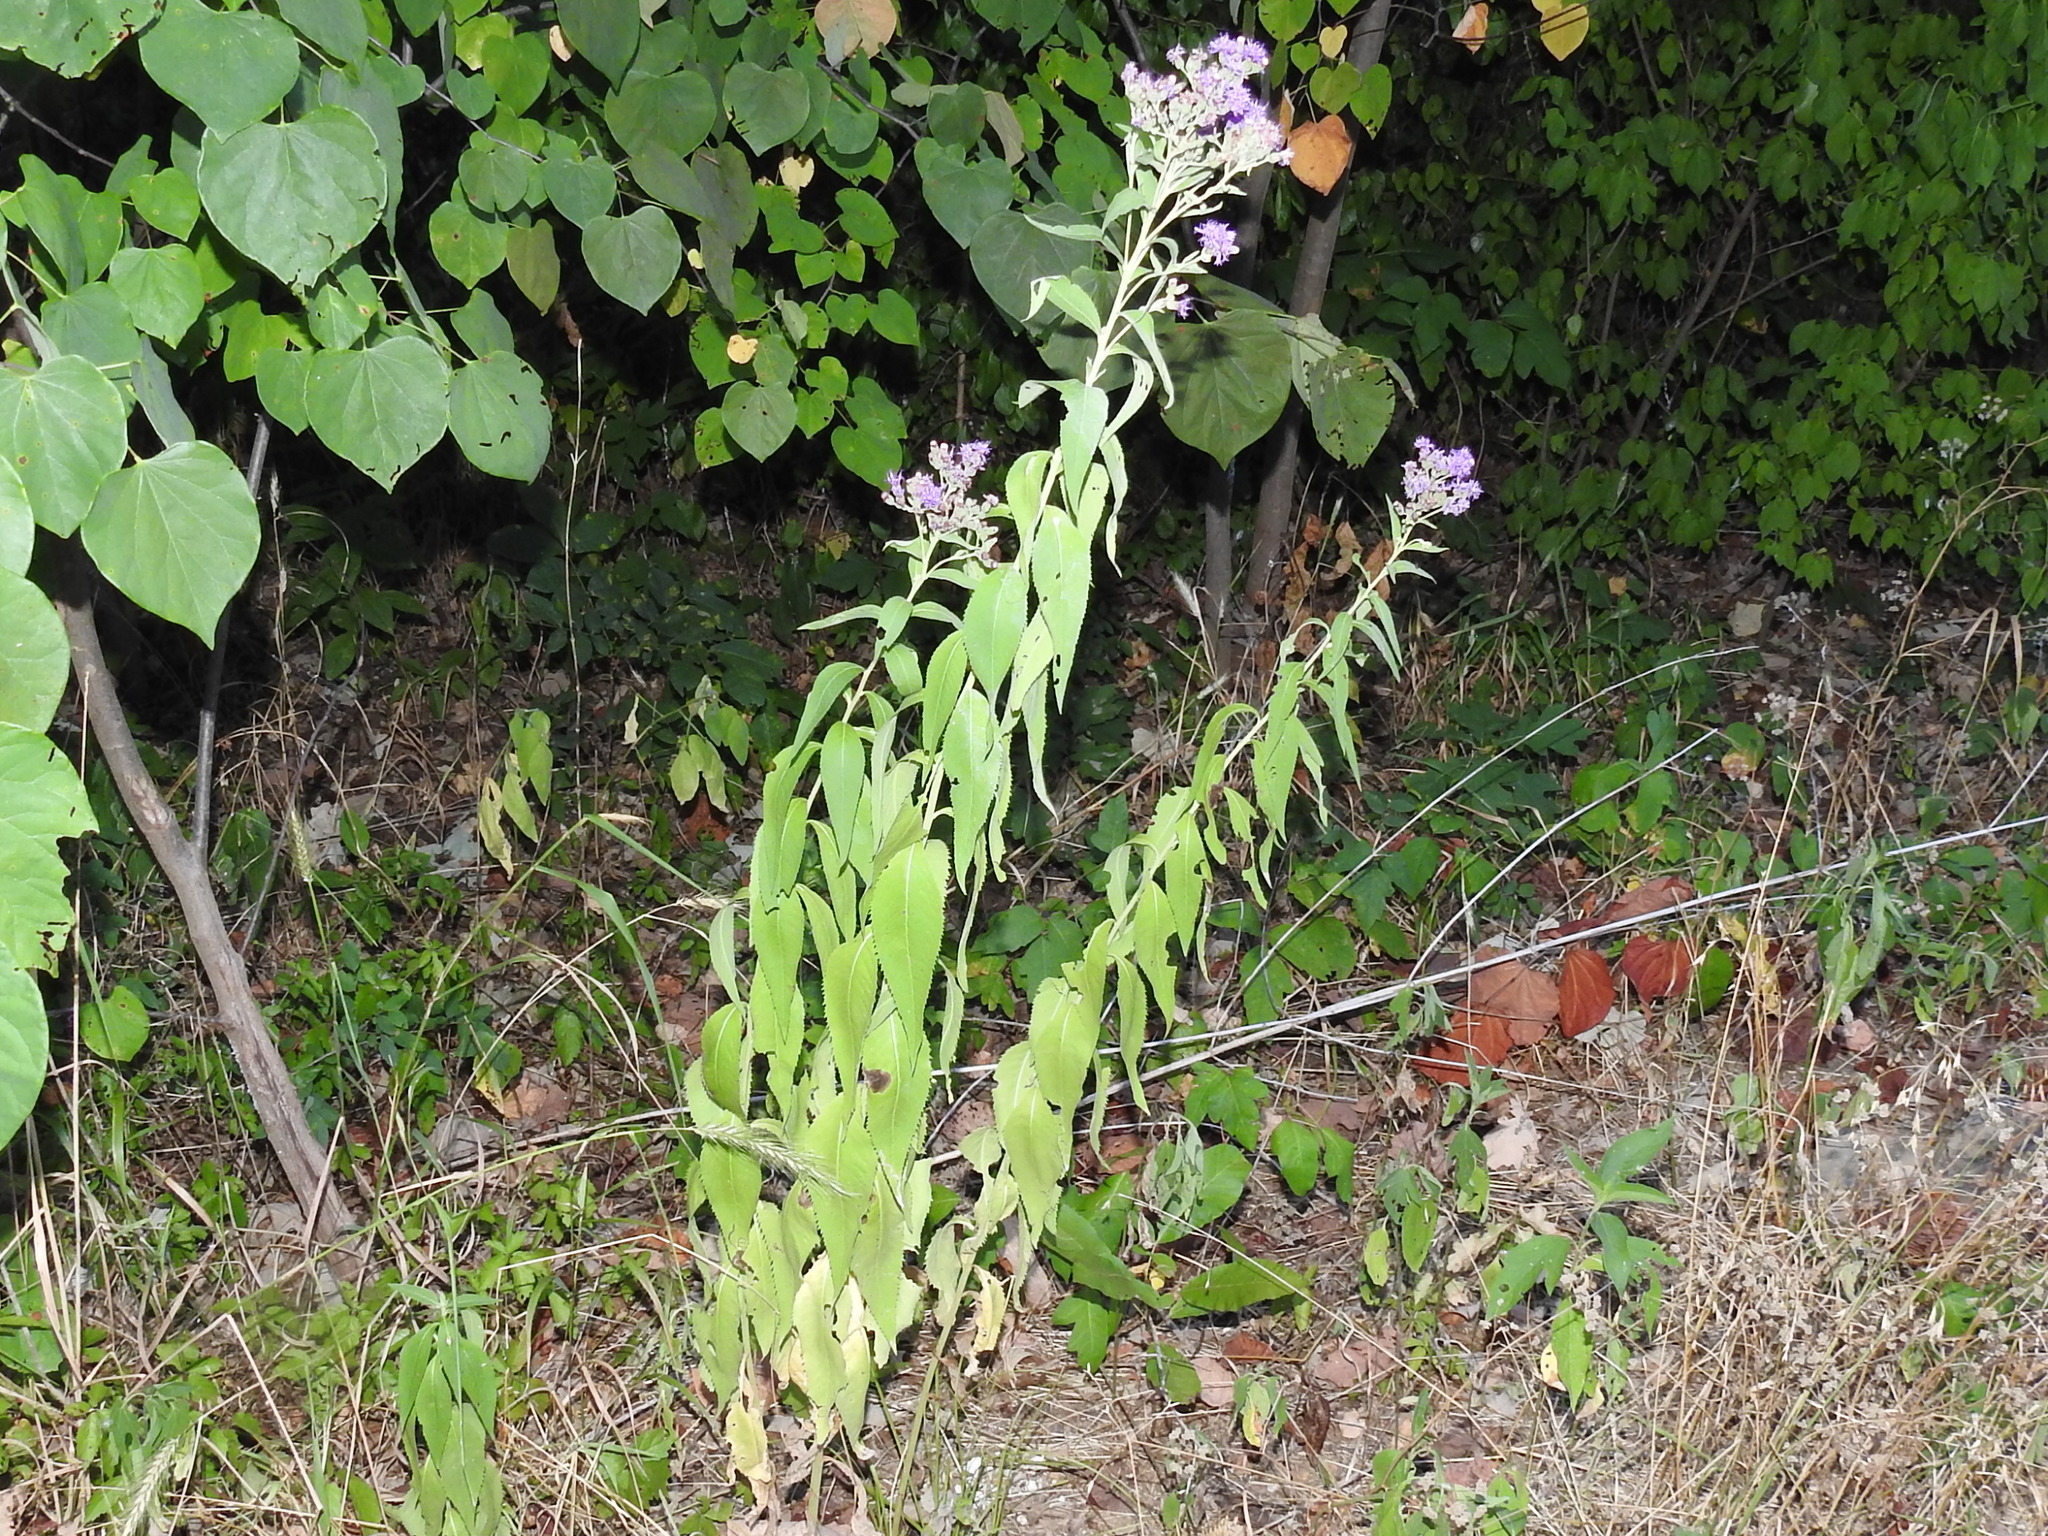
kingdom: Plantae
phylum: Tracheophyta
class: Magnoliopsida
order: Asterales
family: Asteraceae
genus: Vernonia
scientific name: Vernonia baldwinii
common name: Western ironweed
